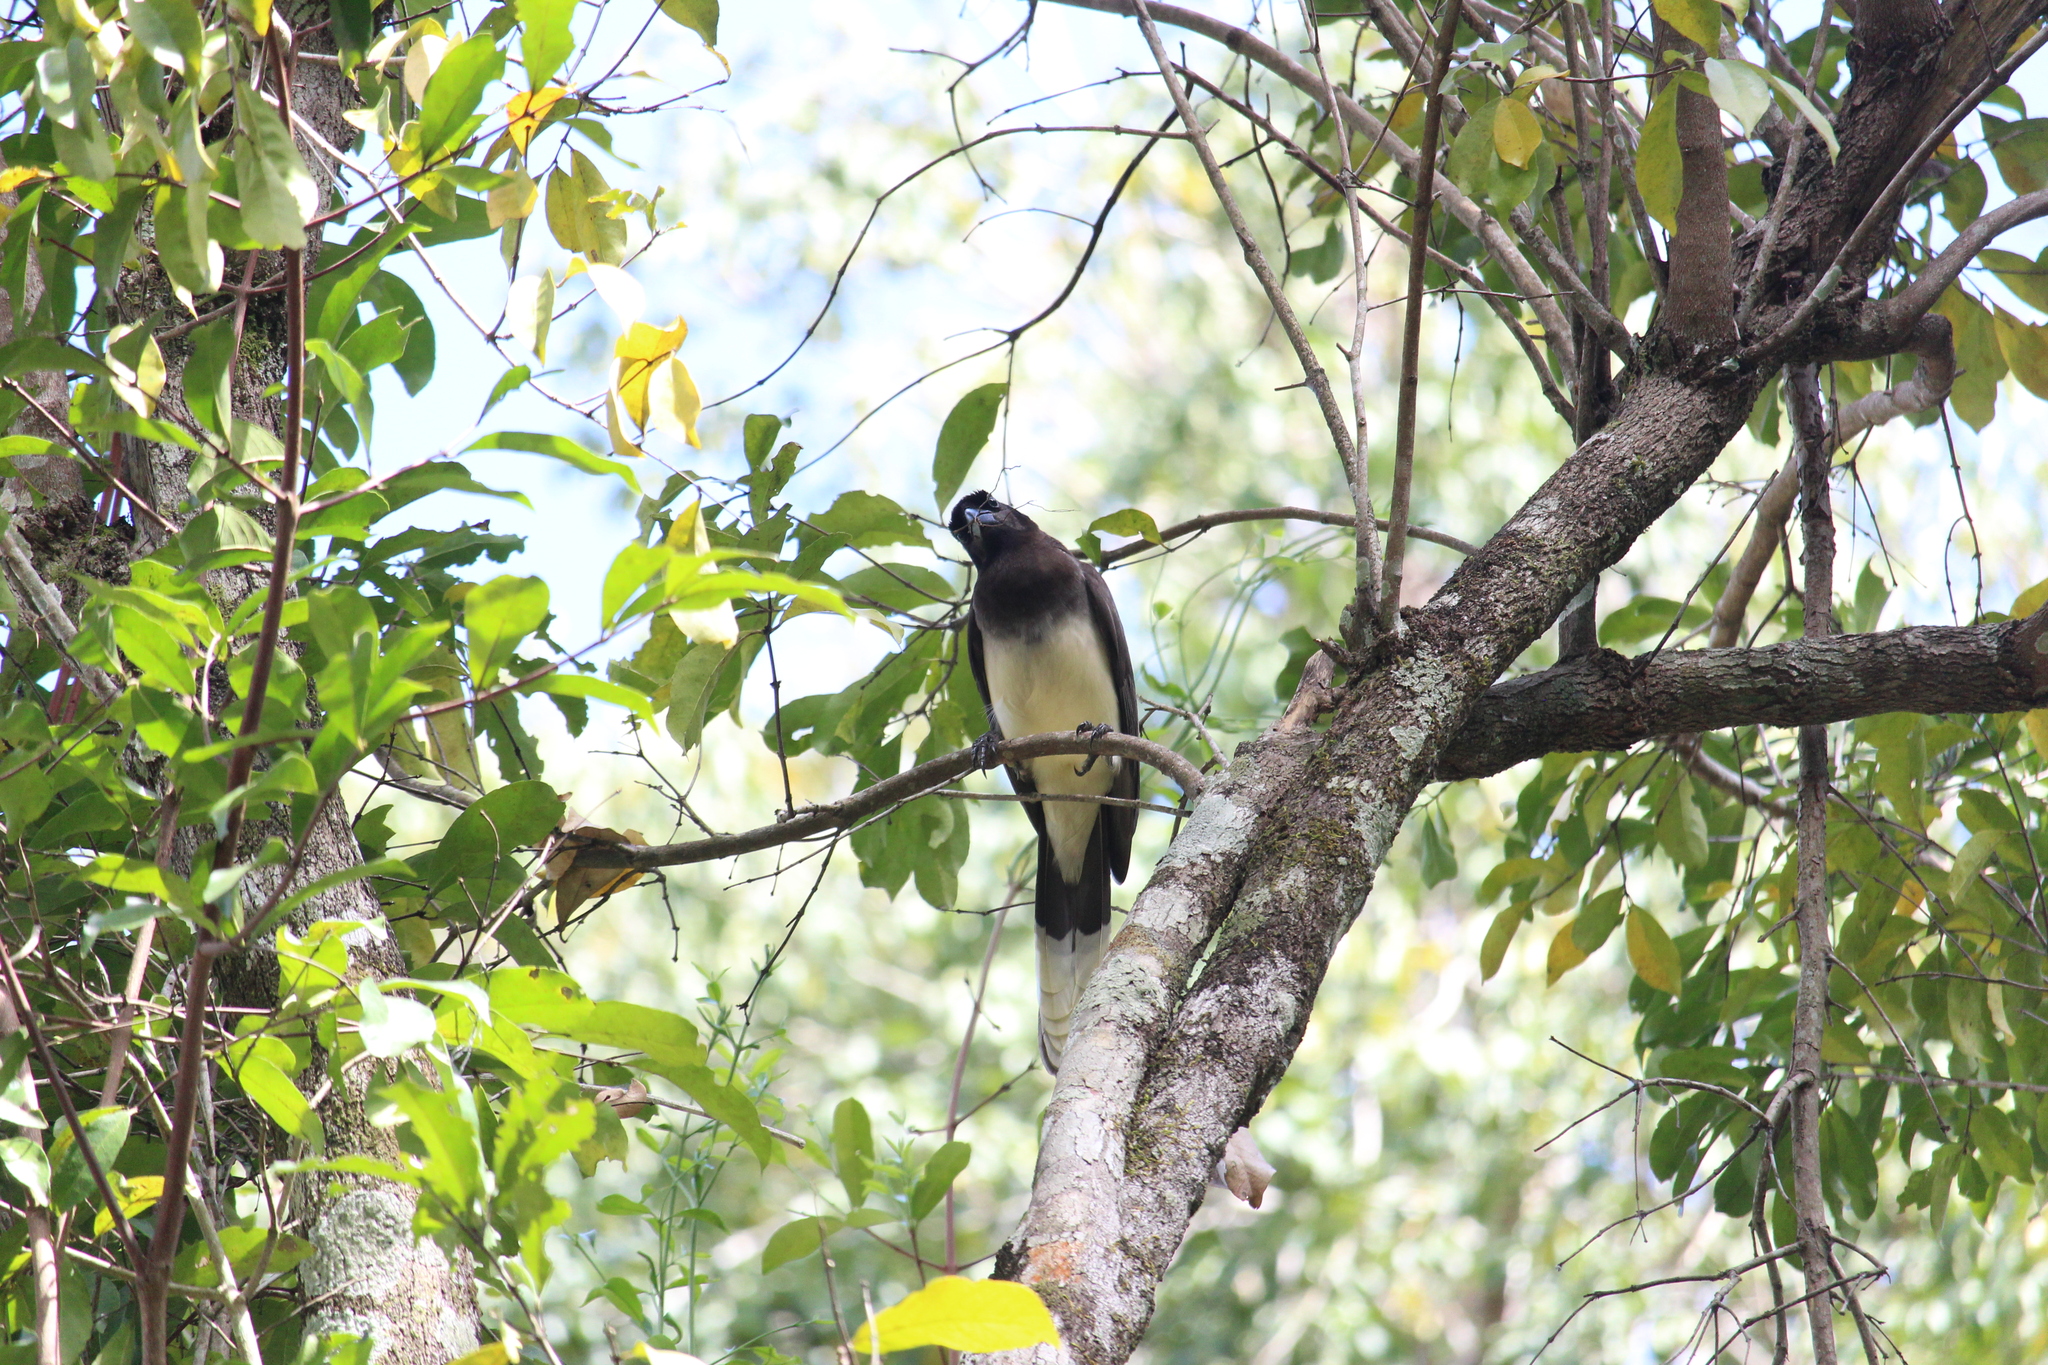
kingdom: Animalia
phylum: Chordata
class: Aves
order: Passeriformes
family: Corvidae
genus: Psilorhinus
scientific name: Psilorhinus morio
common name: Brown jay
